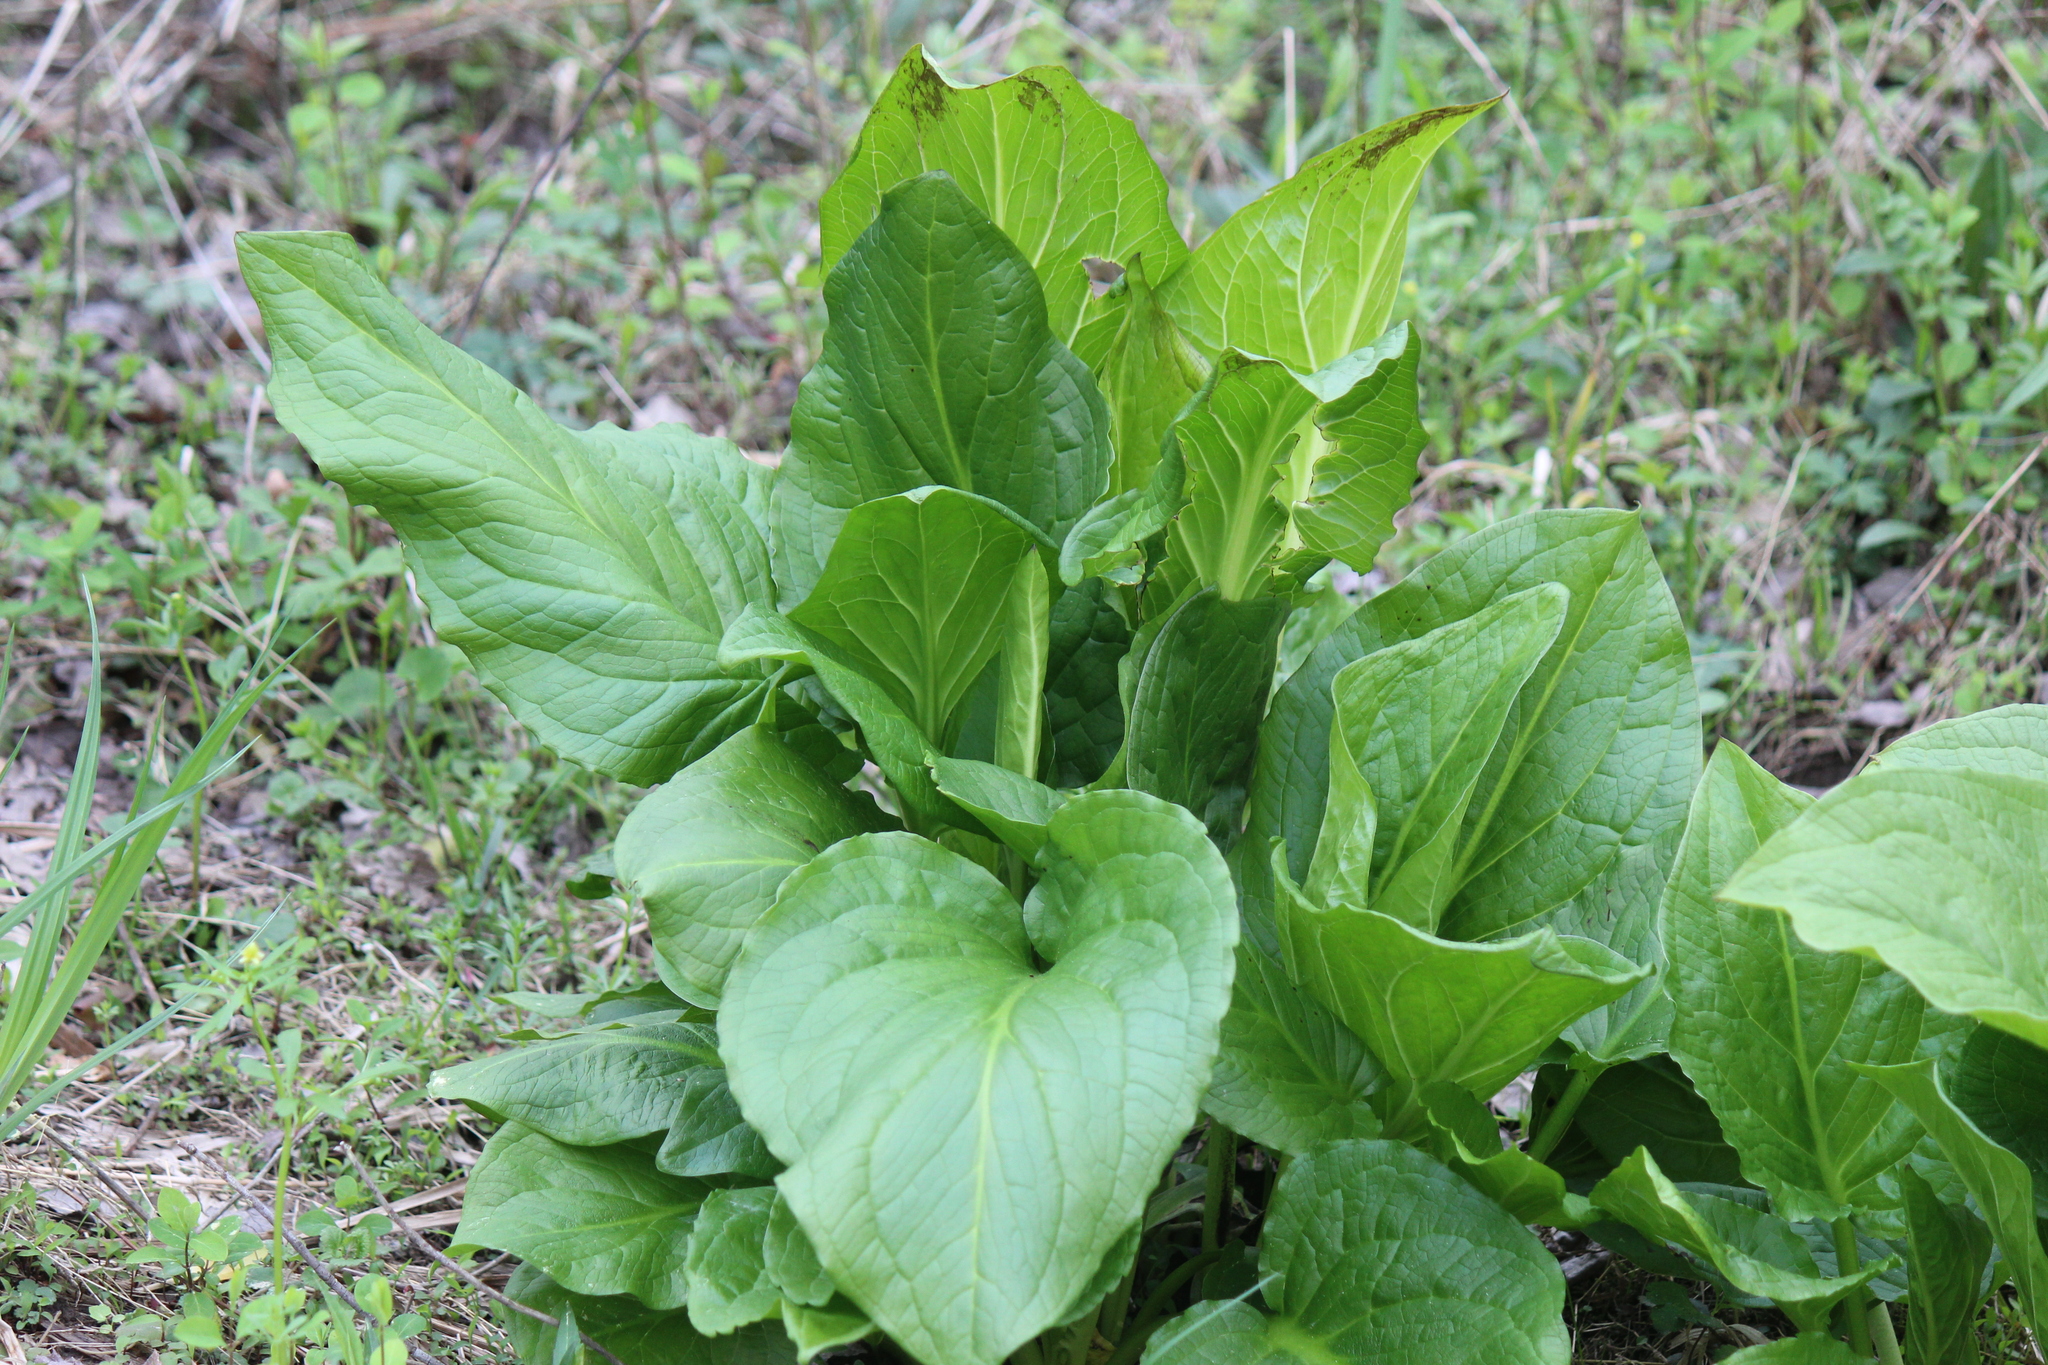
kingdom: Plantae
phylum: Tracheophyta
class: Liliopsida
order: Alismatales
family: Araceae
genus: Symplocarpus
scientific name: Symplocarpus foetidus
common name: Eastern skunk cabbage
